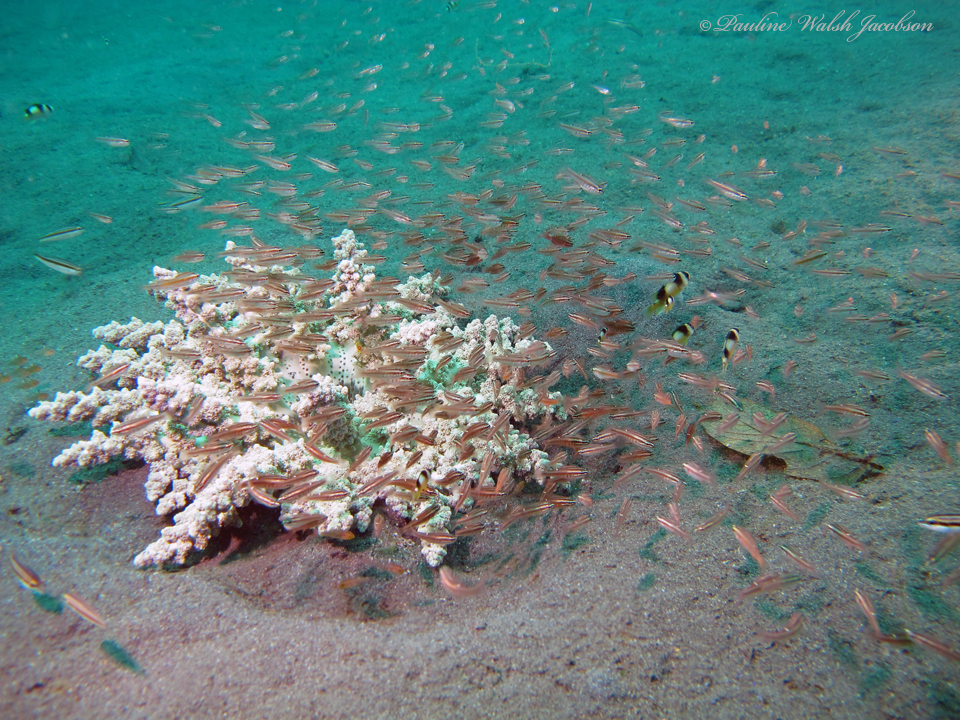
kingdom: Animalia
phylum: Cnidaria
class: Anthozoa
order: Actiniaria
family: Actinodendridae
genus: Actinodendron
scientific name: Actinodendron alcyonoideum
